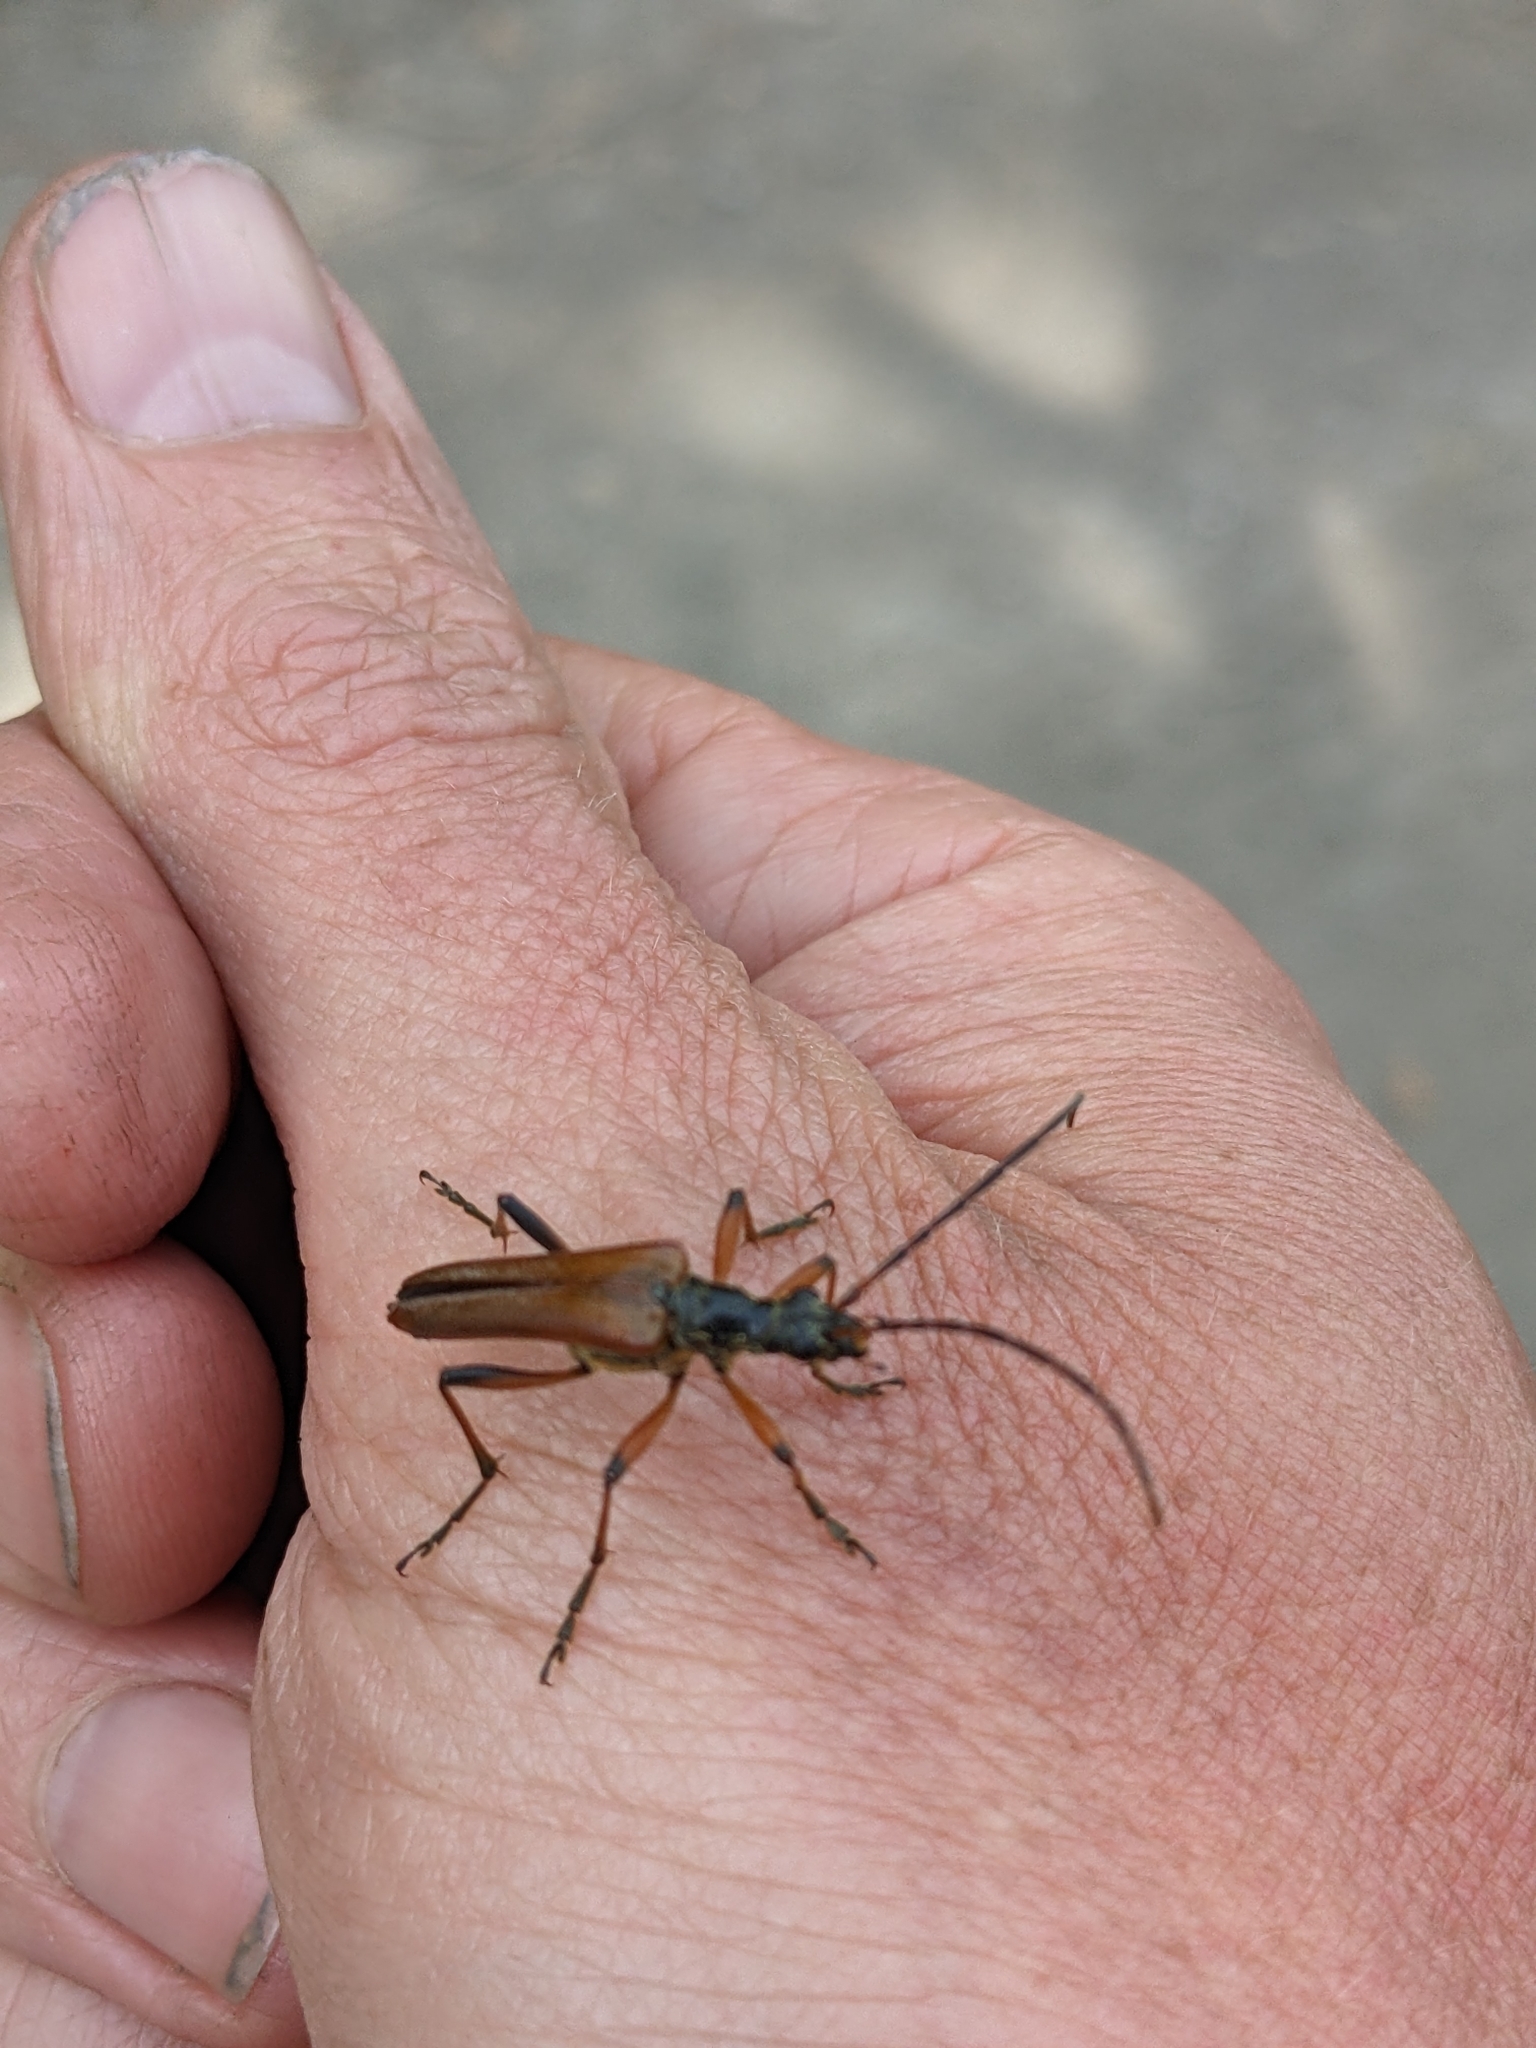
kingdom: Animalia
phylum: Arthropoda
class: Insecta
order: Coleoptera
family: Cerambycidae
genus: Stenocorus
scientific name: Stenocorus meridianus
